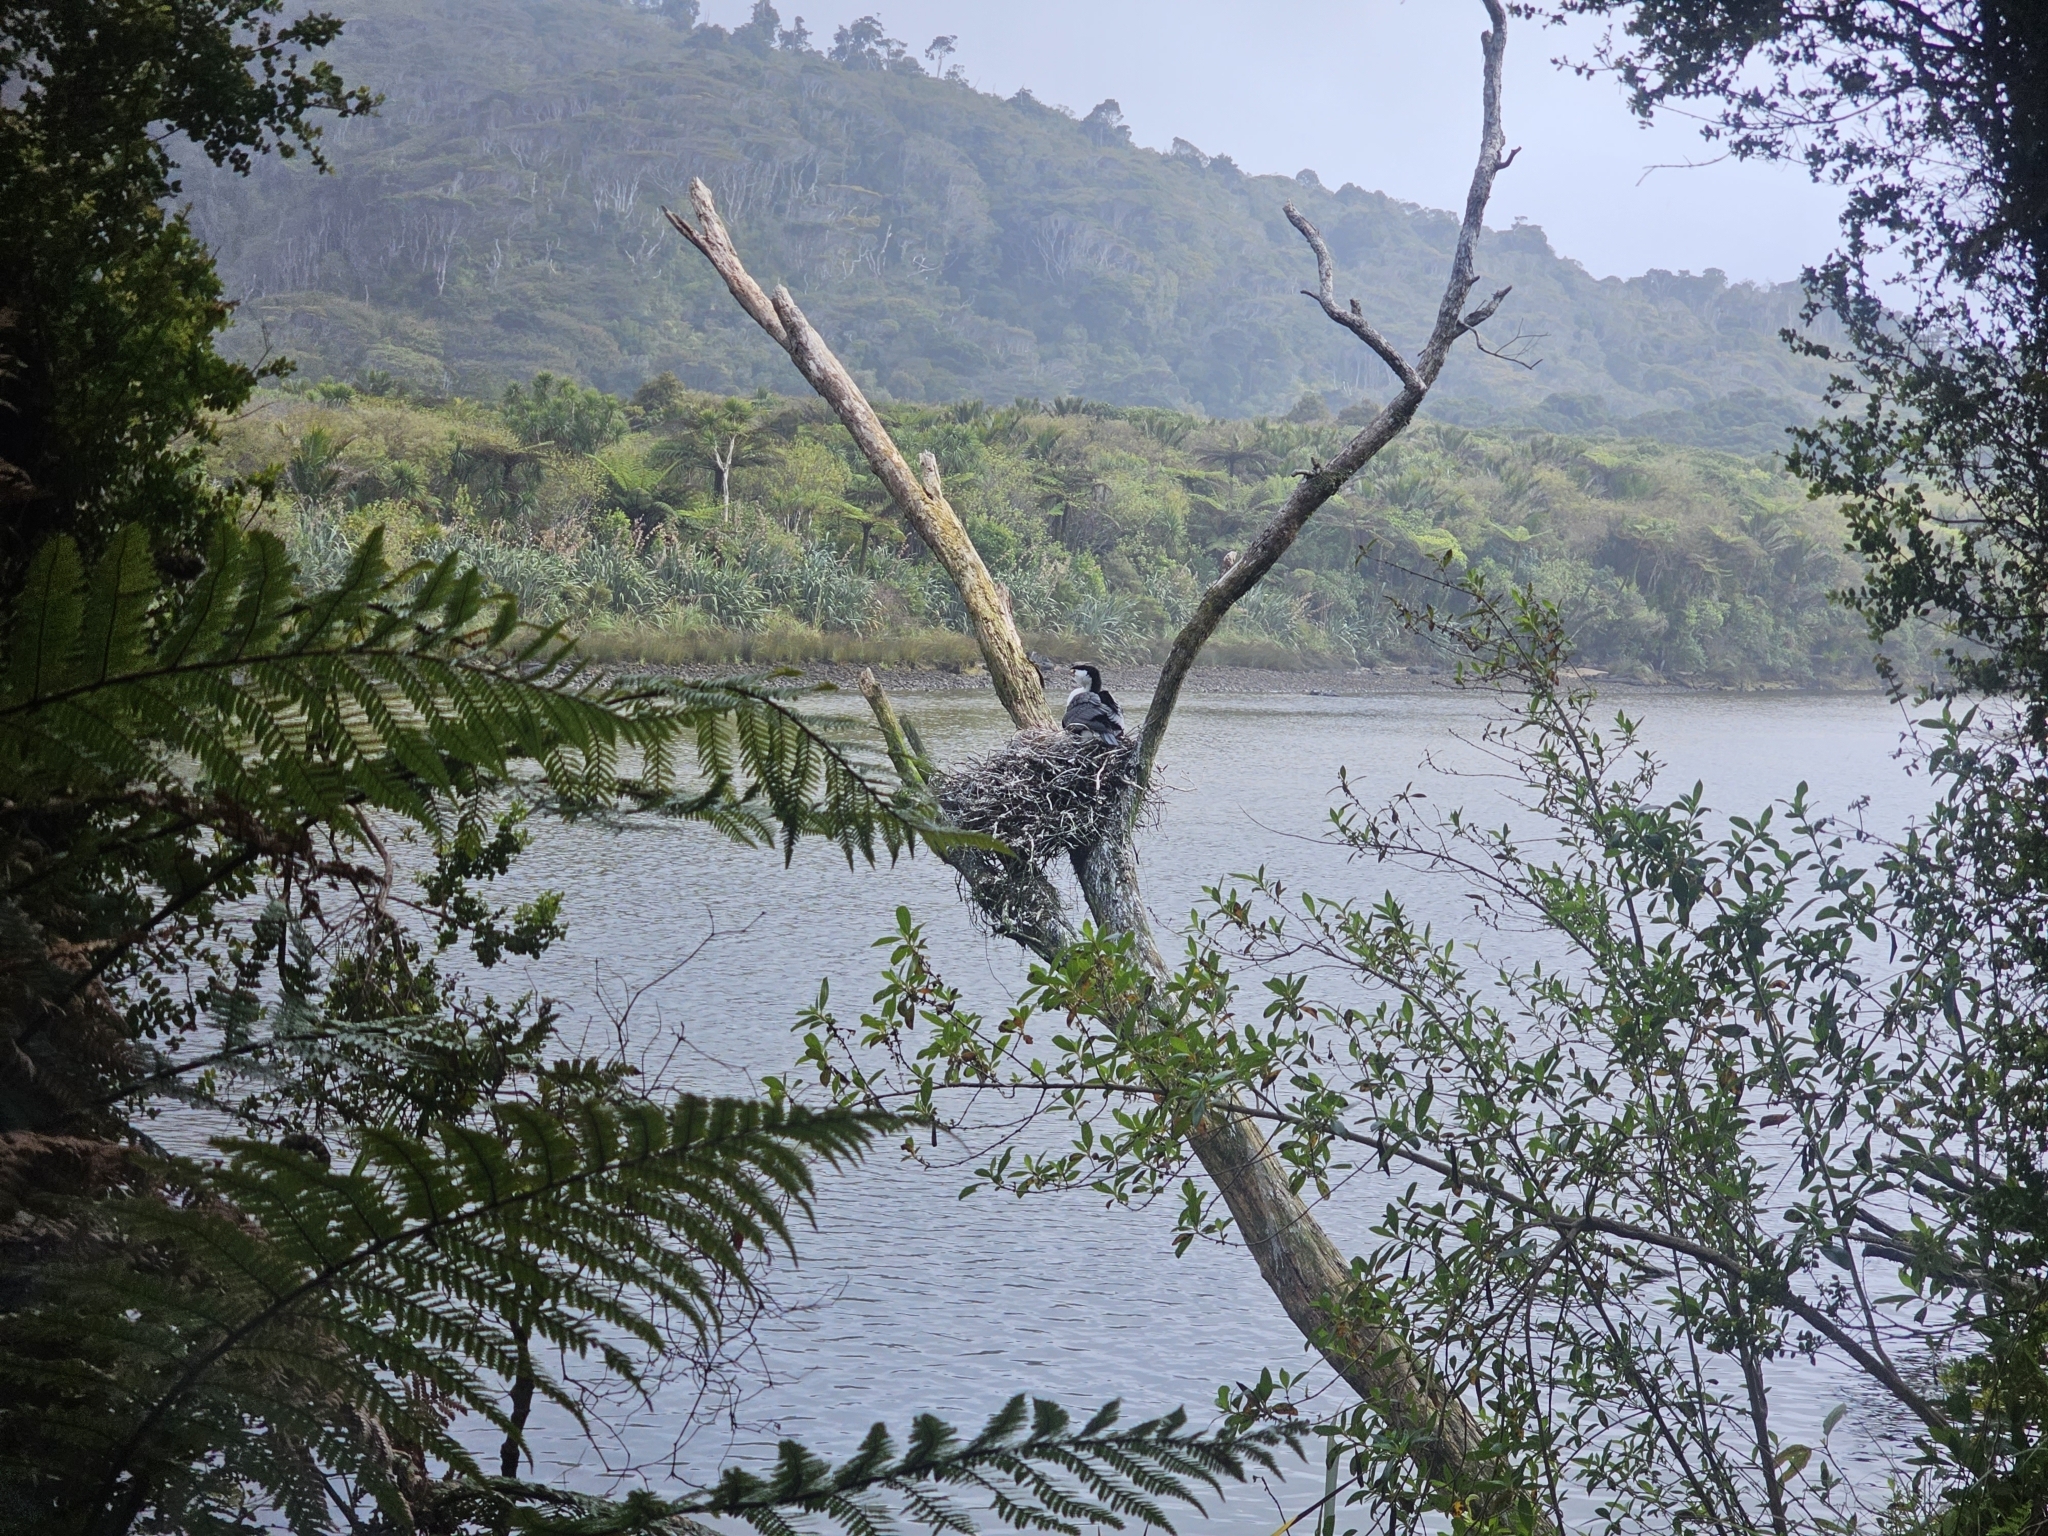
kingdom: Animalia
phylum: Chordata
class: Aves
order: Suliformes
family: Phalacrocoracidae
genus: Phalacrocorax
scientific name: Phalacrocorax varius
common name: Pied cormorant
